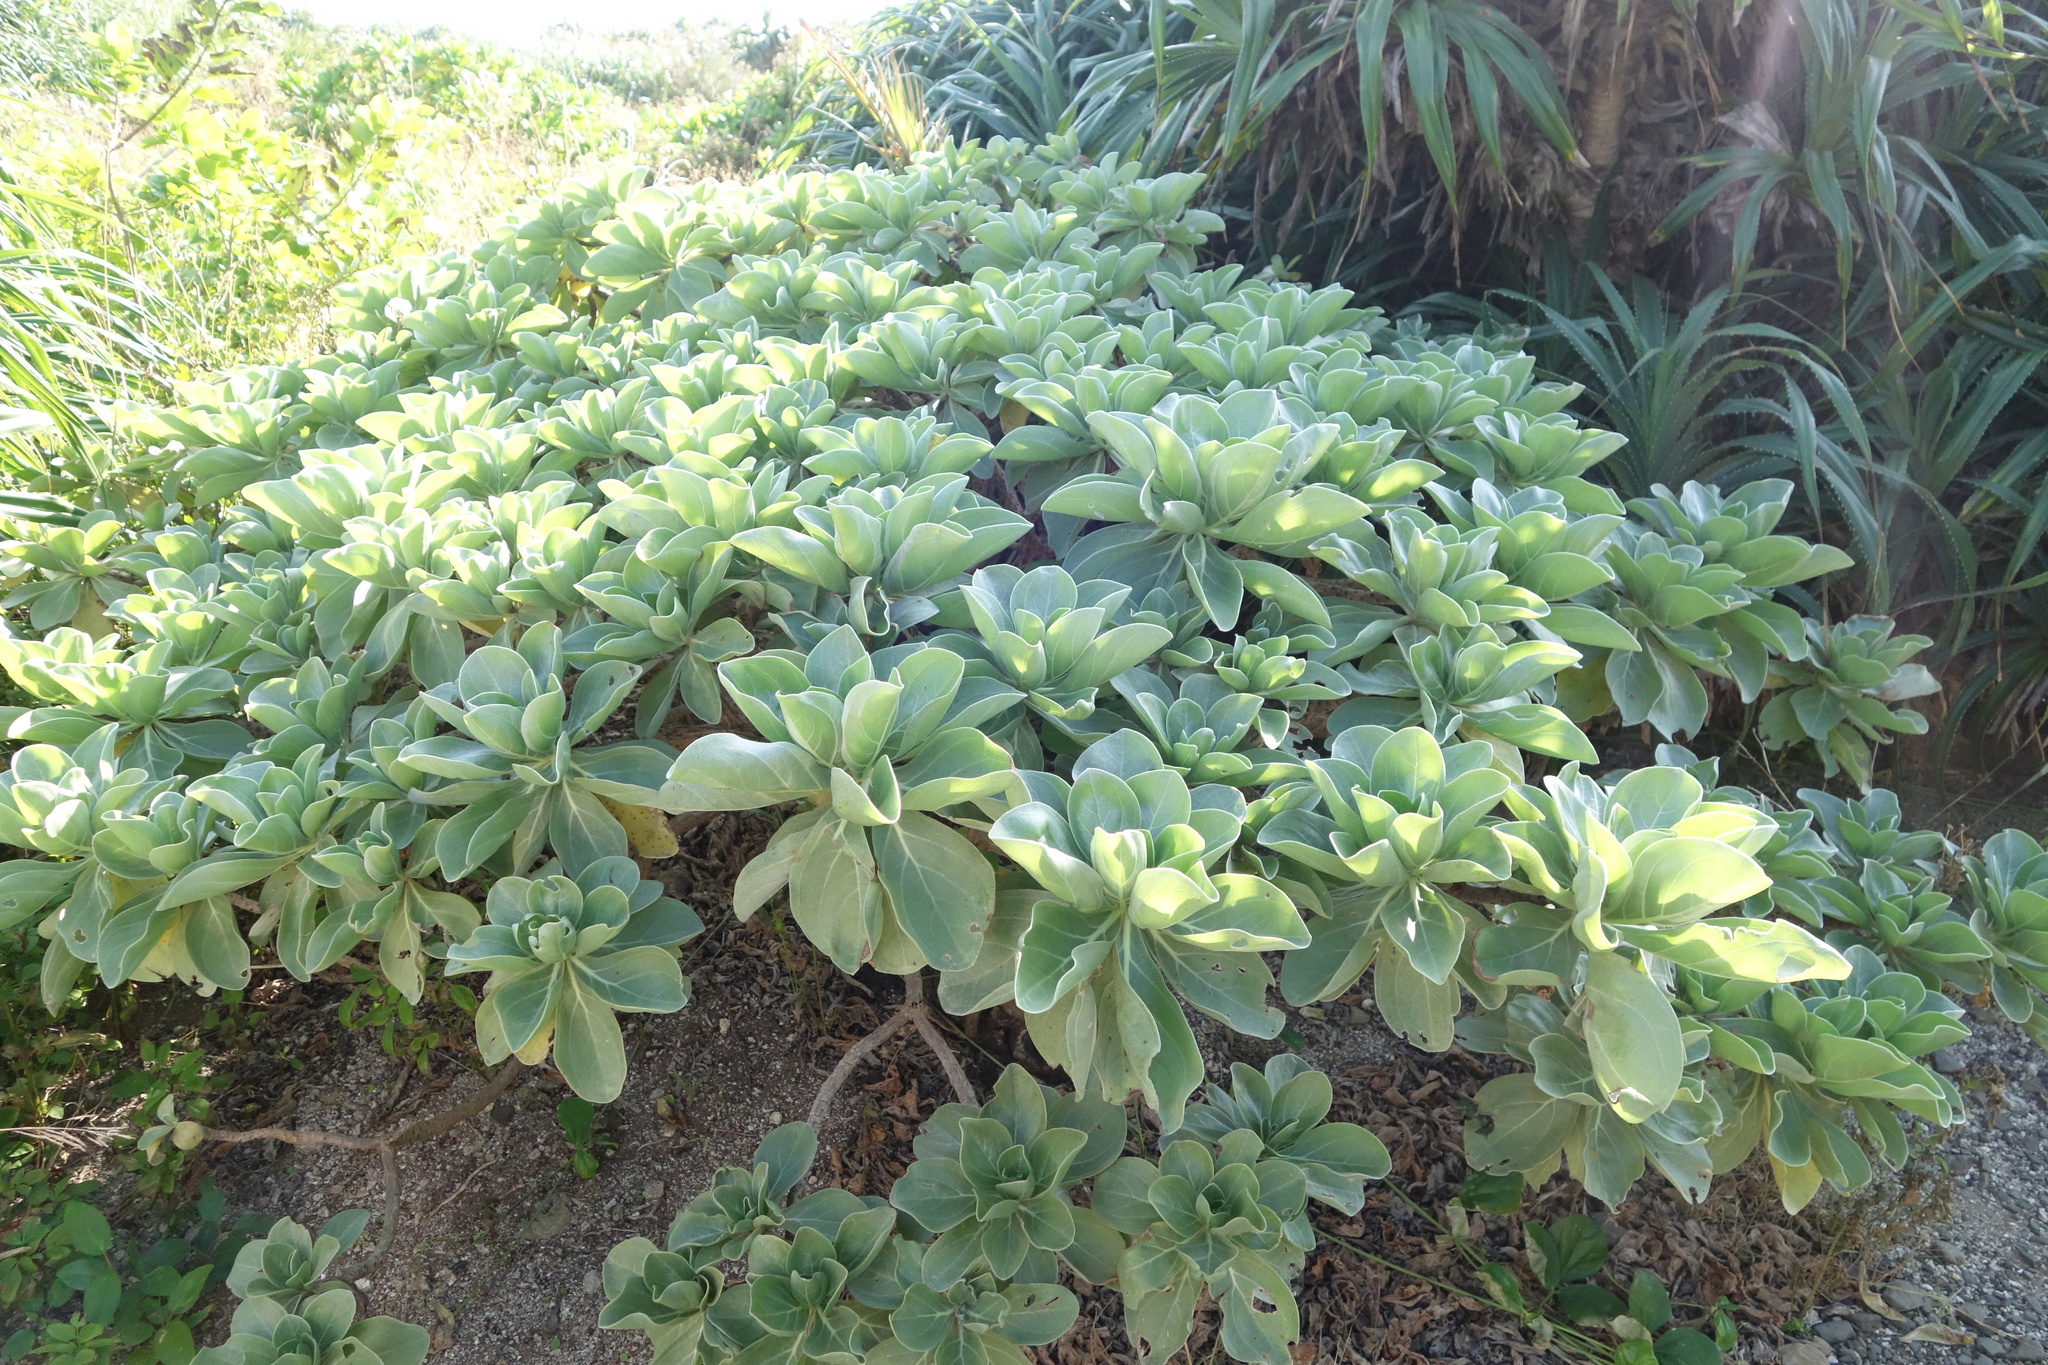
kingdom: Plantae
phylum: Tracheophyta
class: Magnoliopsida
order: Boraginales
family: Heliotropiaceae
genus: Heliotropium
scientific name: Heliotropium velutinum
